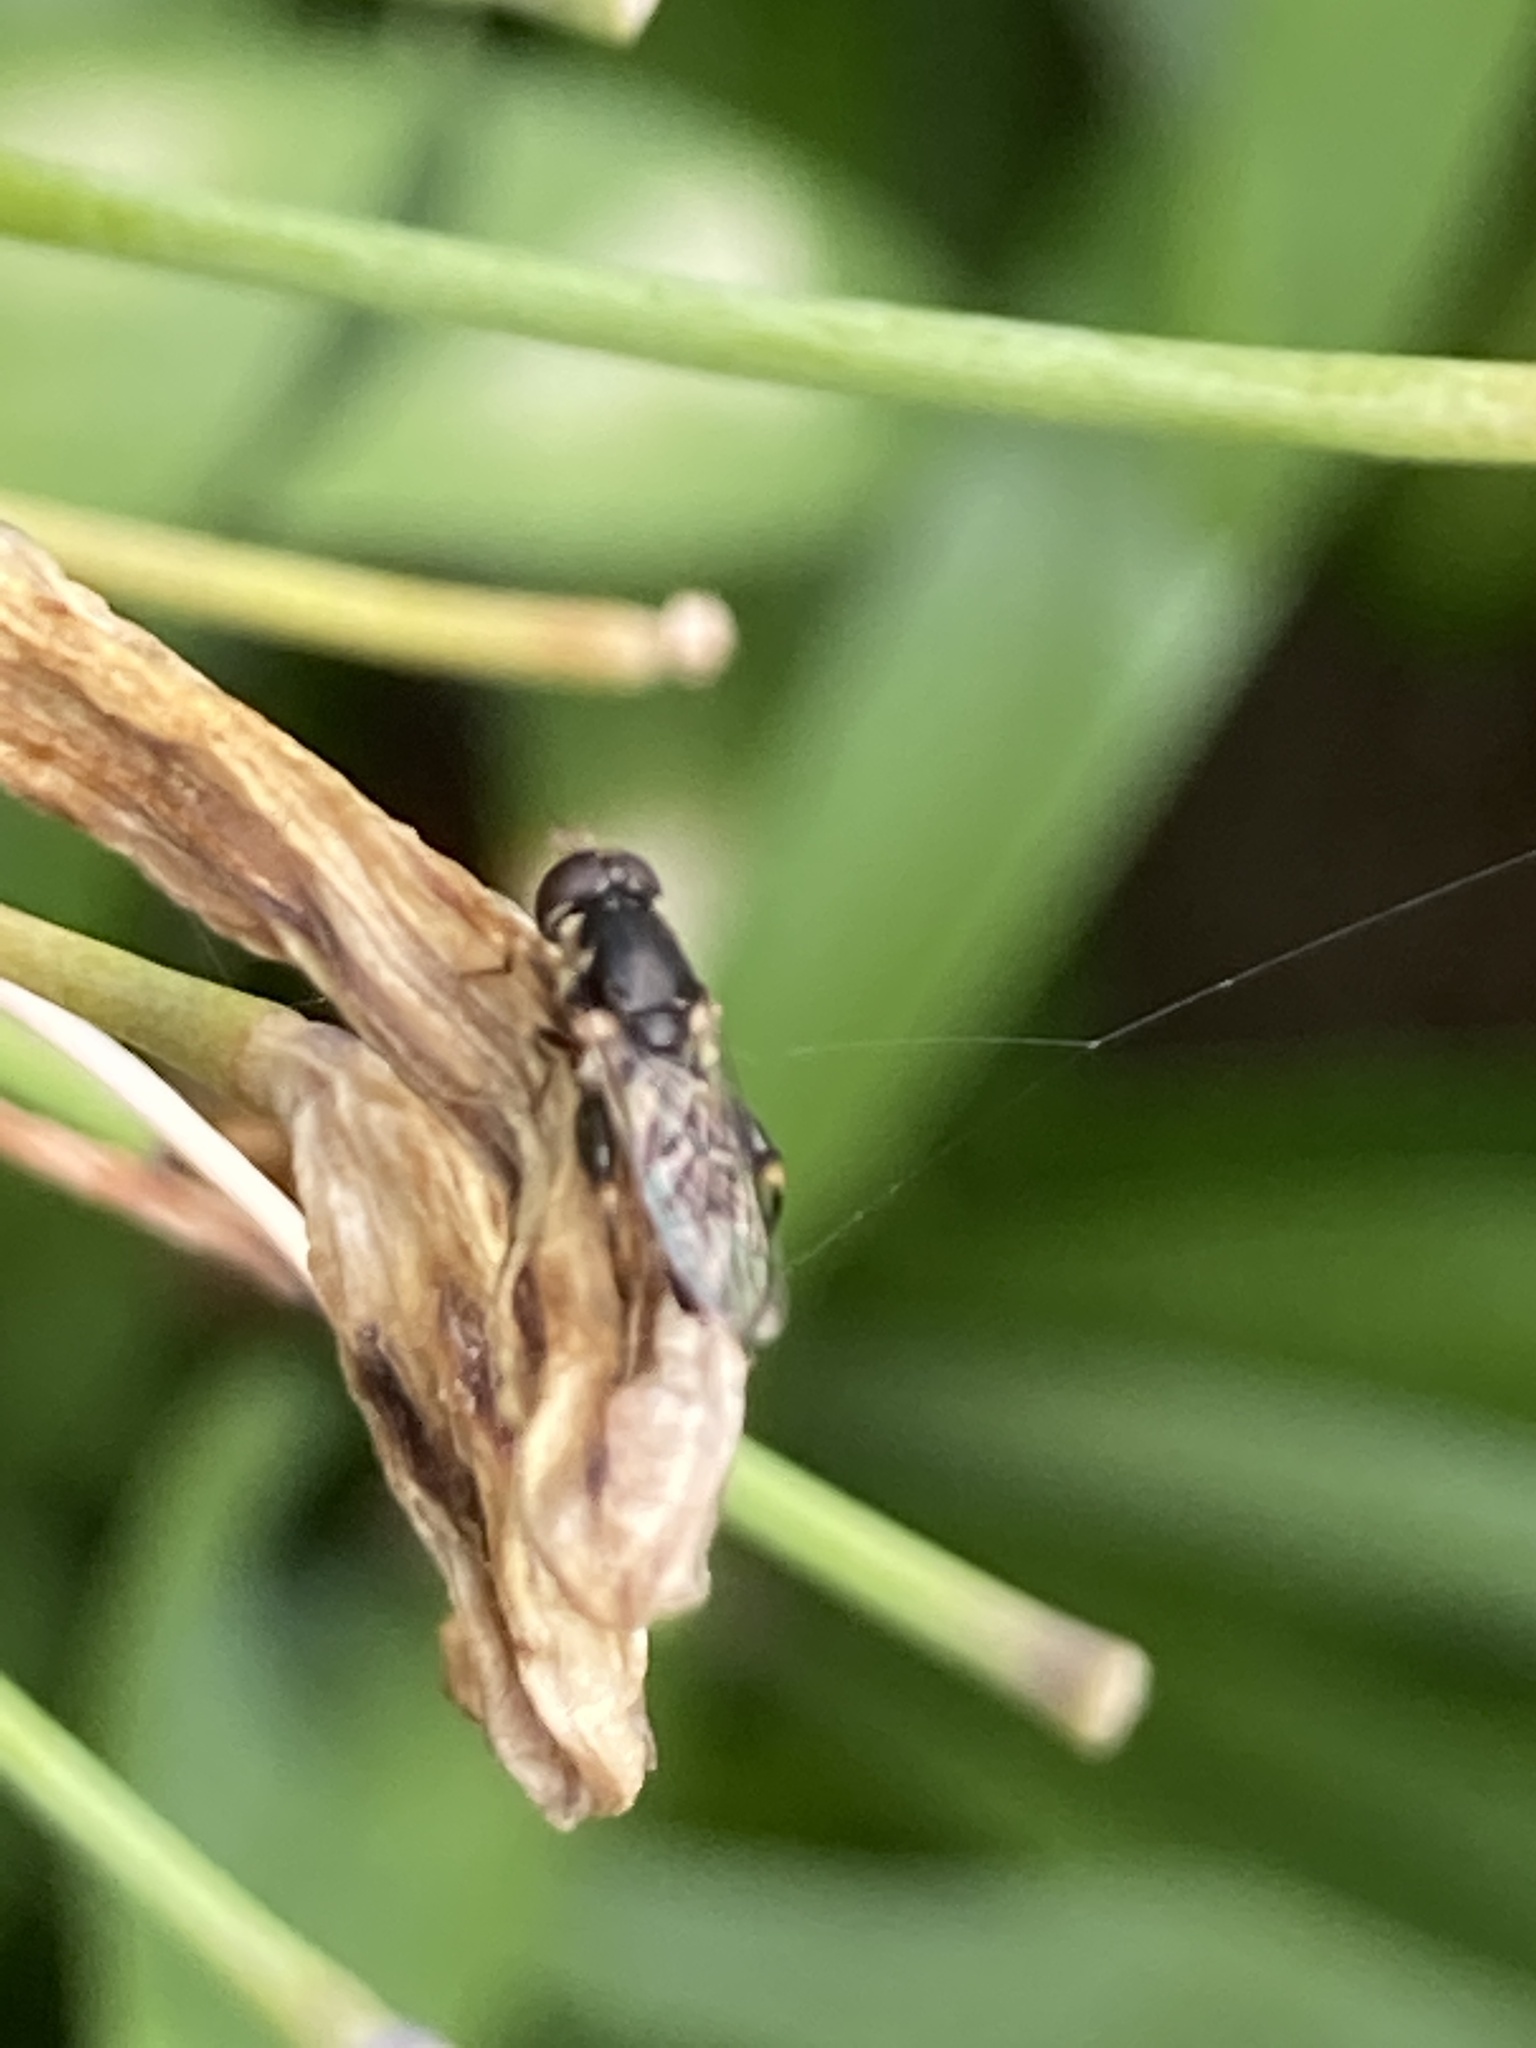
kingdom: Animalia
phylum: Arthropoda
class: Insecta
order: Diptera
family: Syrphidae
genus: Syritta
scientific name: Syritta pipiens
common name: Hover fly
